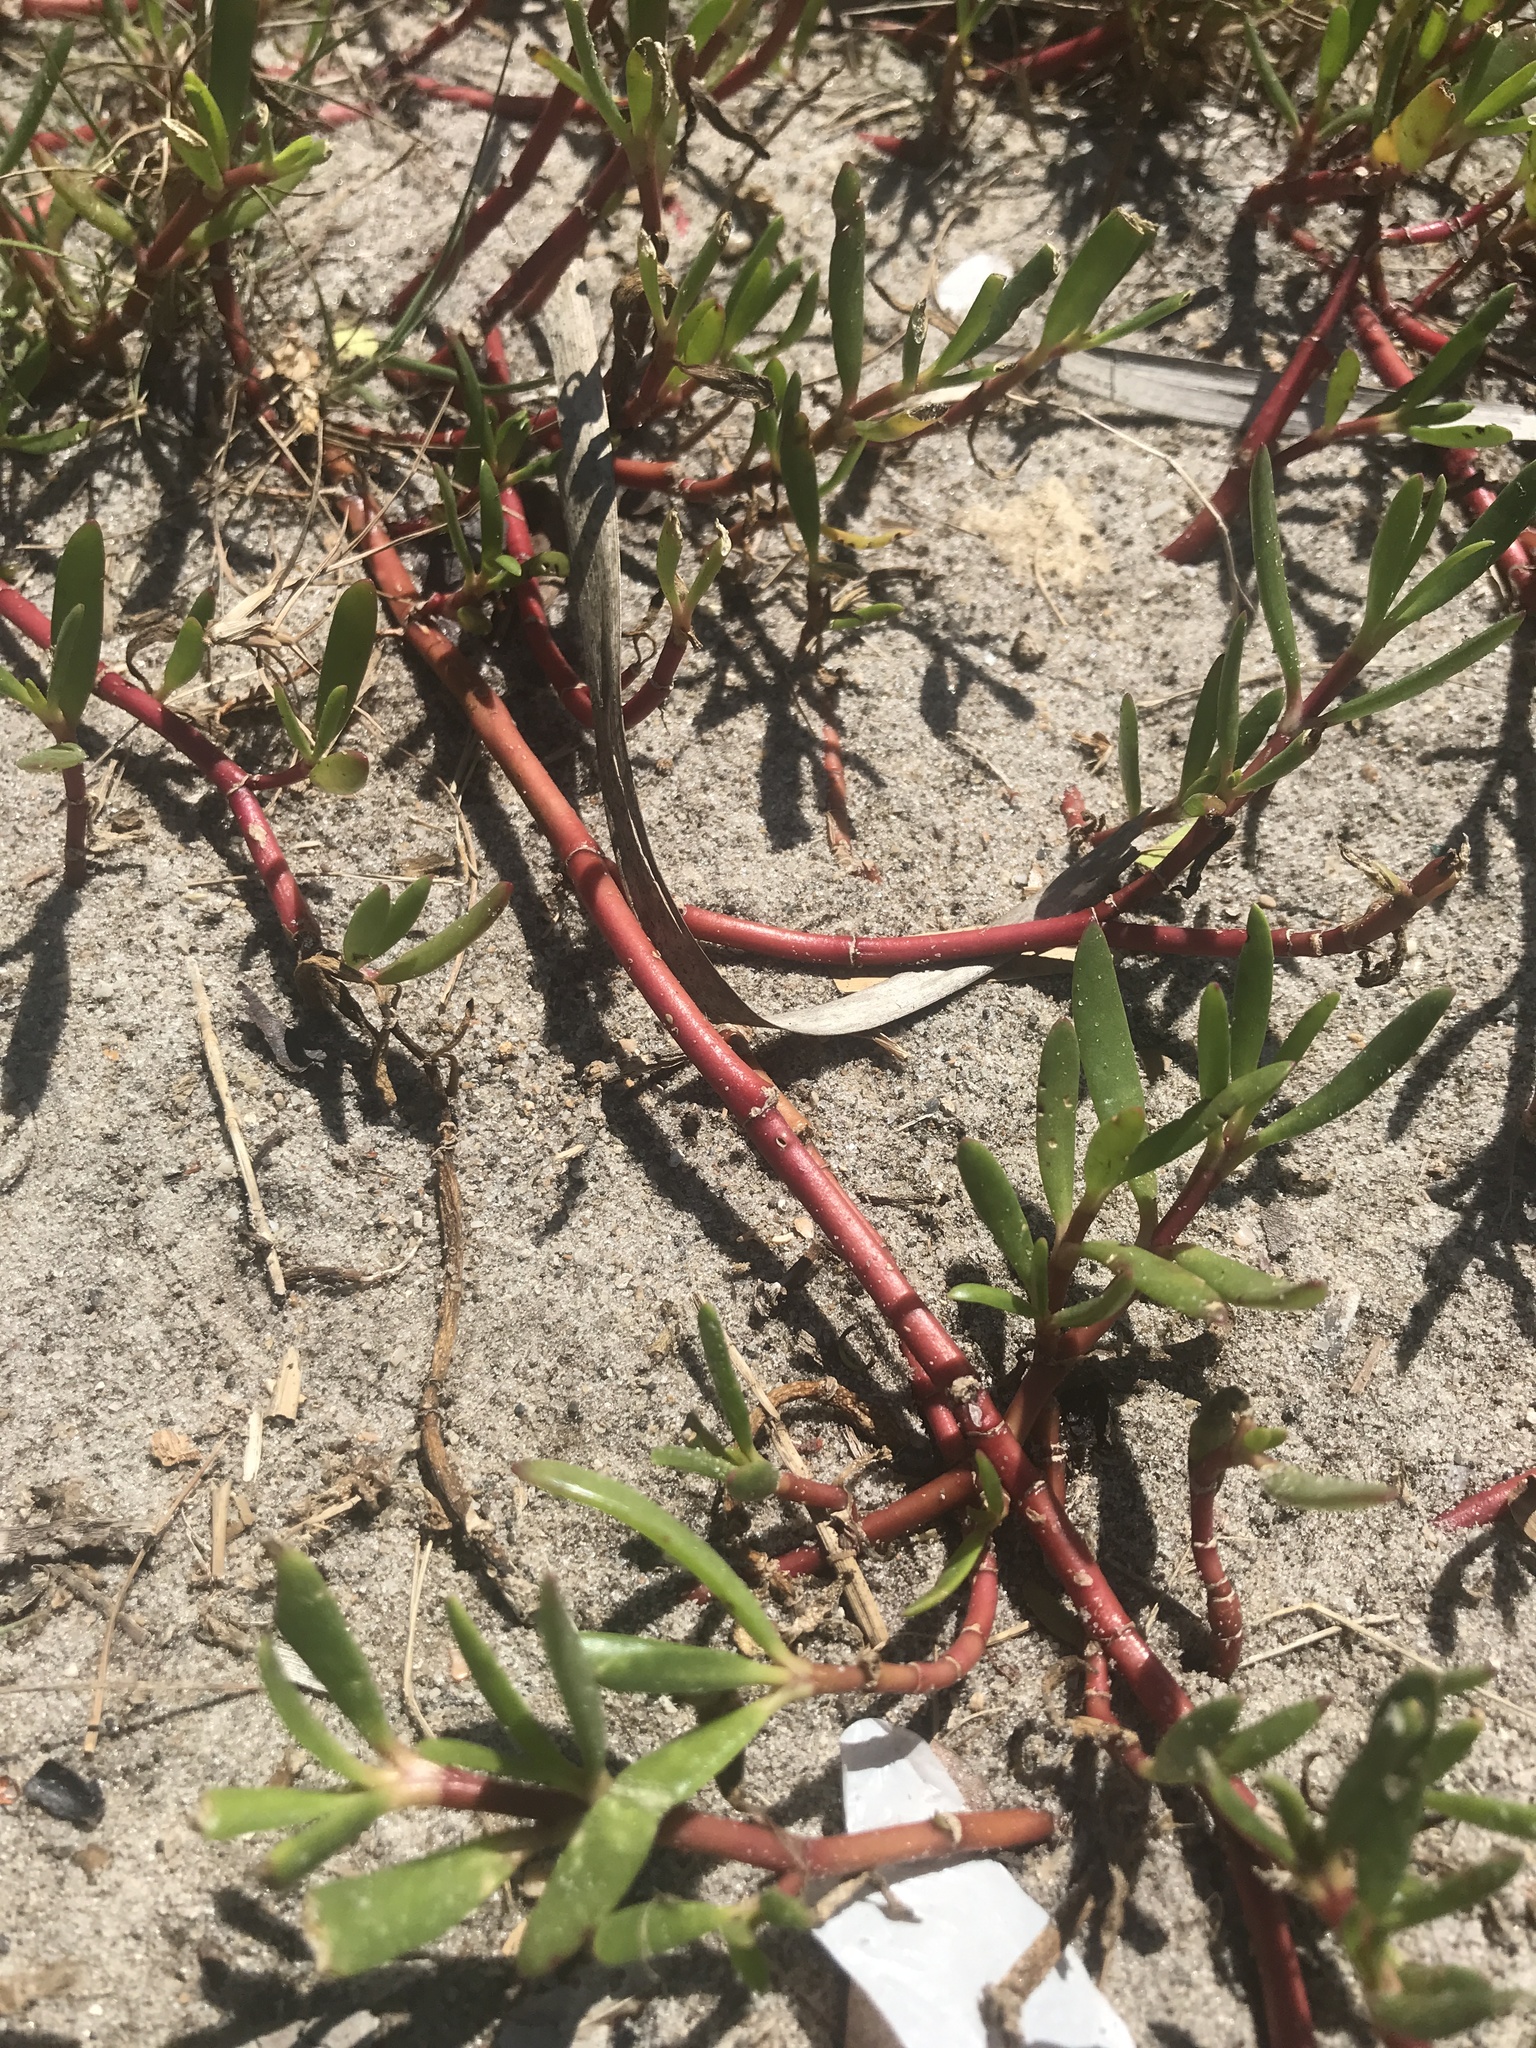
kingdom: Plantae
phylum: Tracheophyta
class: Magnoliopsida
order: Caryophyllales
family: Aizoaceae
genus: Sesuvium
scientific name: Sesuvium portulacastrum
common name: Sea-purslane
